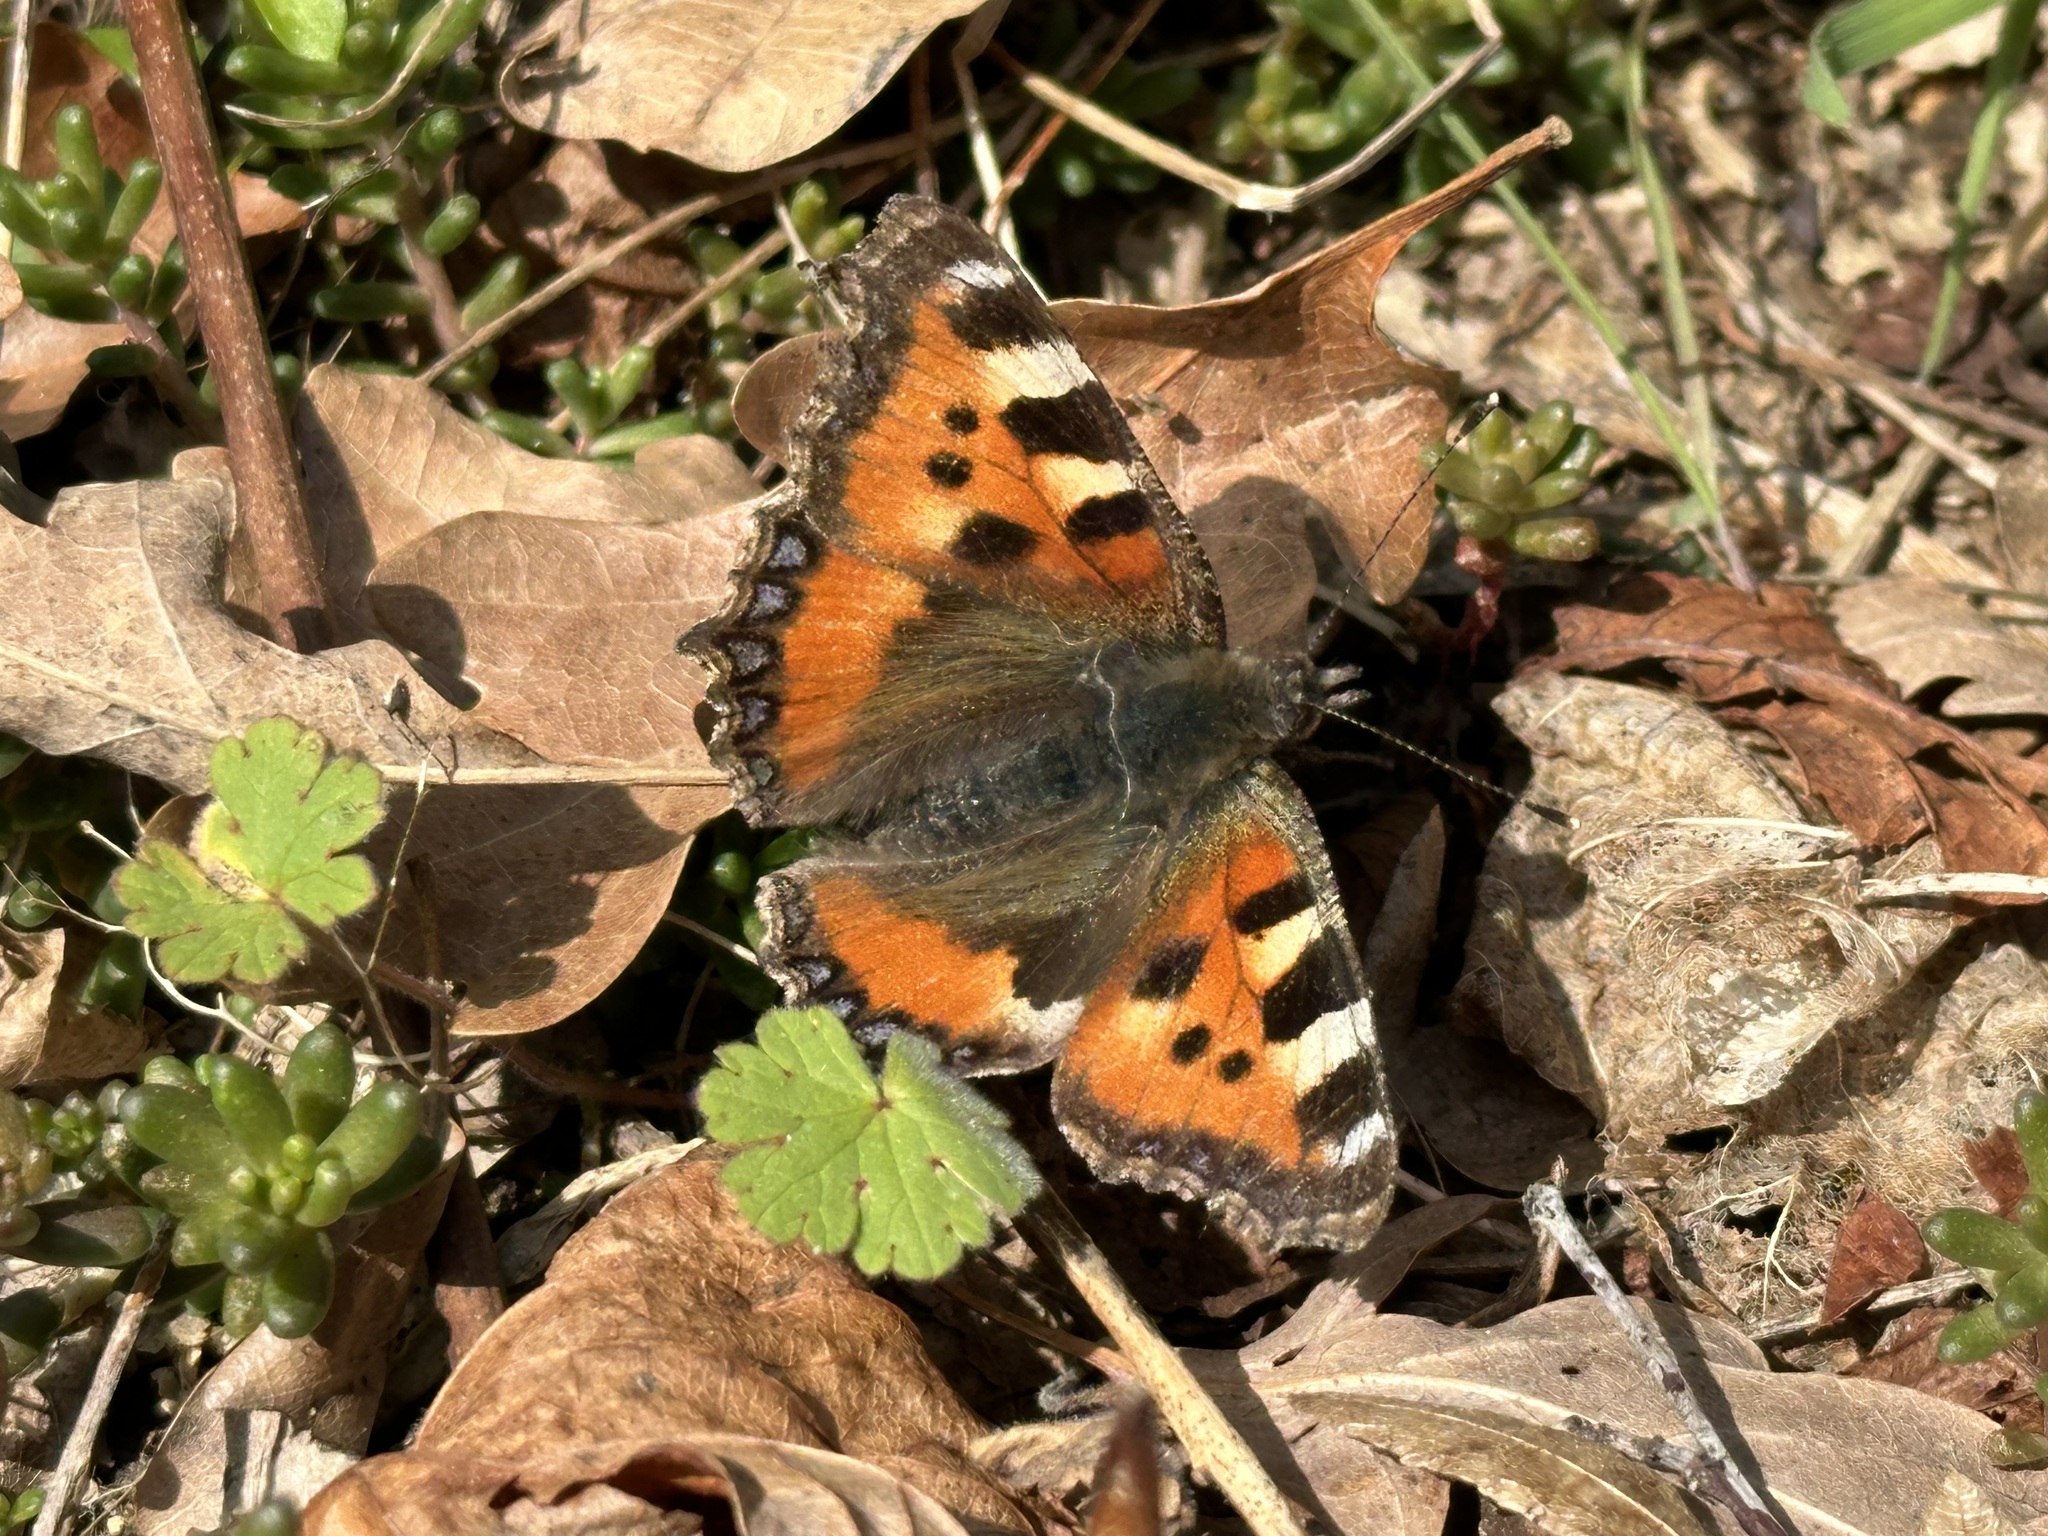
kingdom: Animalia
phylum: Arthropoda
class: Insecta
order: Lepidoptera
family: Nymphalidae
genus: Aglais
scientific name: Aglais urticae
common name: Small tortoiseshell
